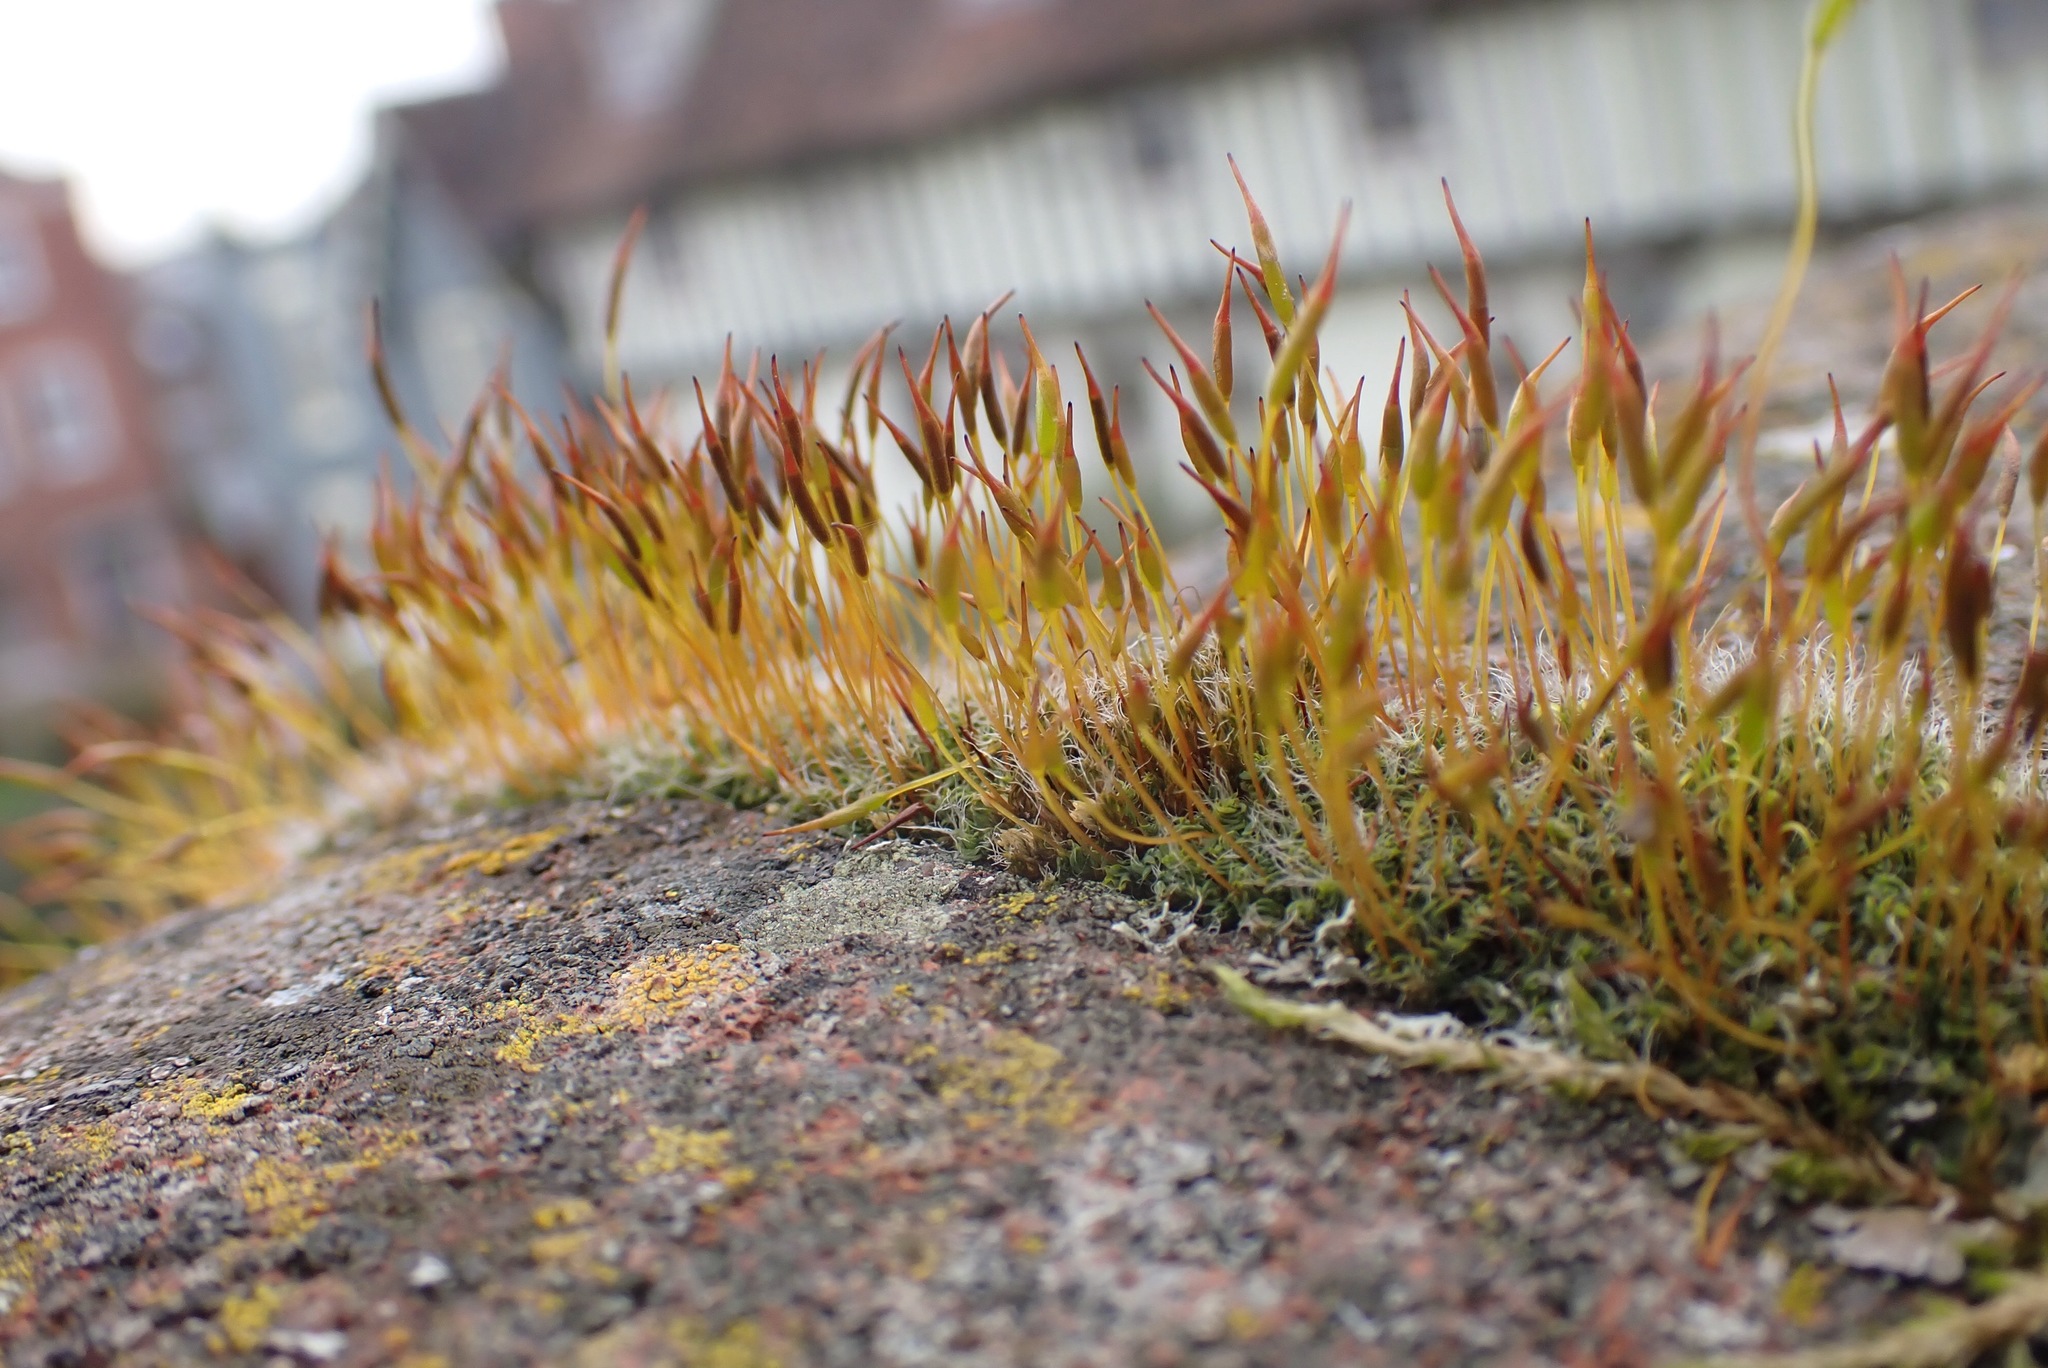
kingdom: Plantae
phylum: Bryophyta
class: Bryopsida
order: Pottiales
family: Pottiaceae
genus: Tortula
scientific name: Tortula muralis
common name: Wall screw-moss
